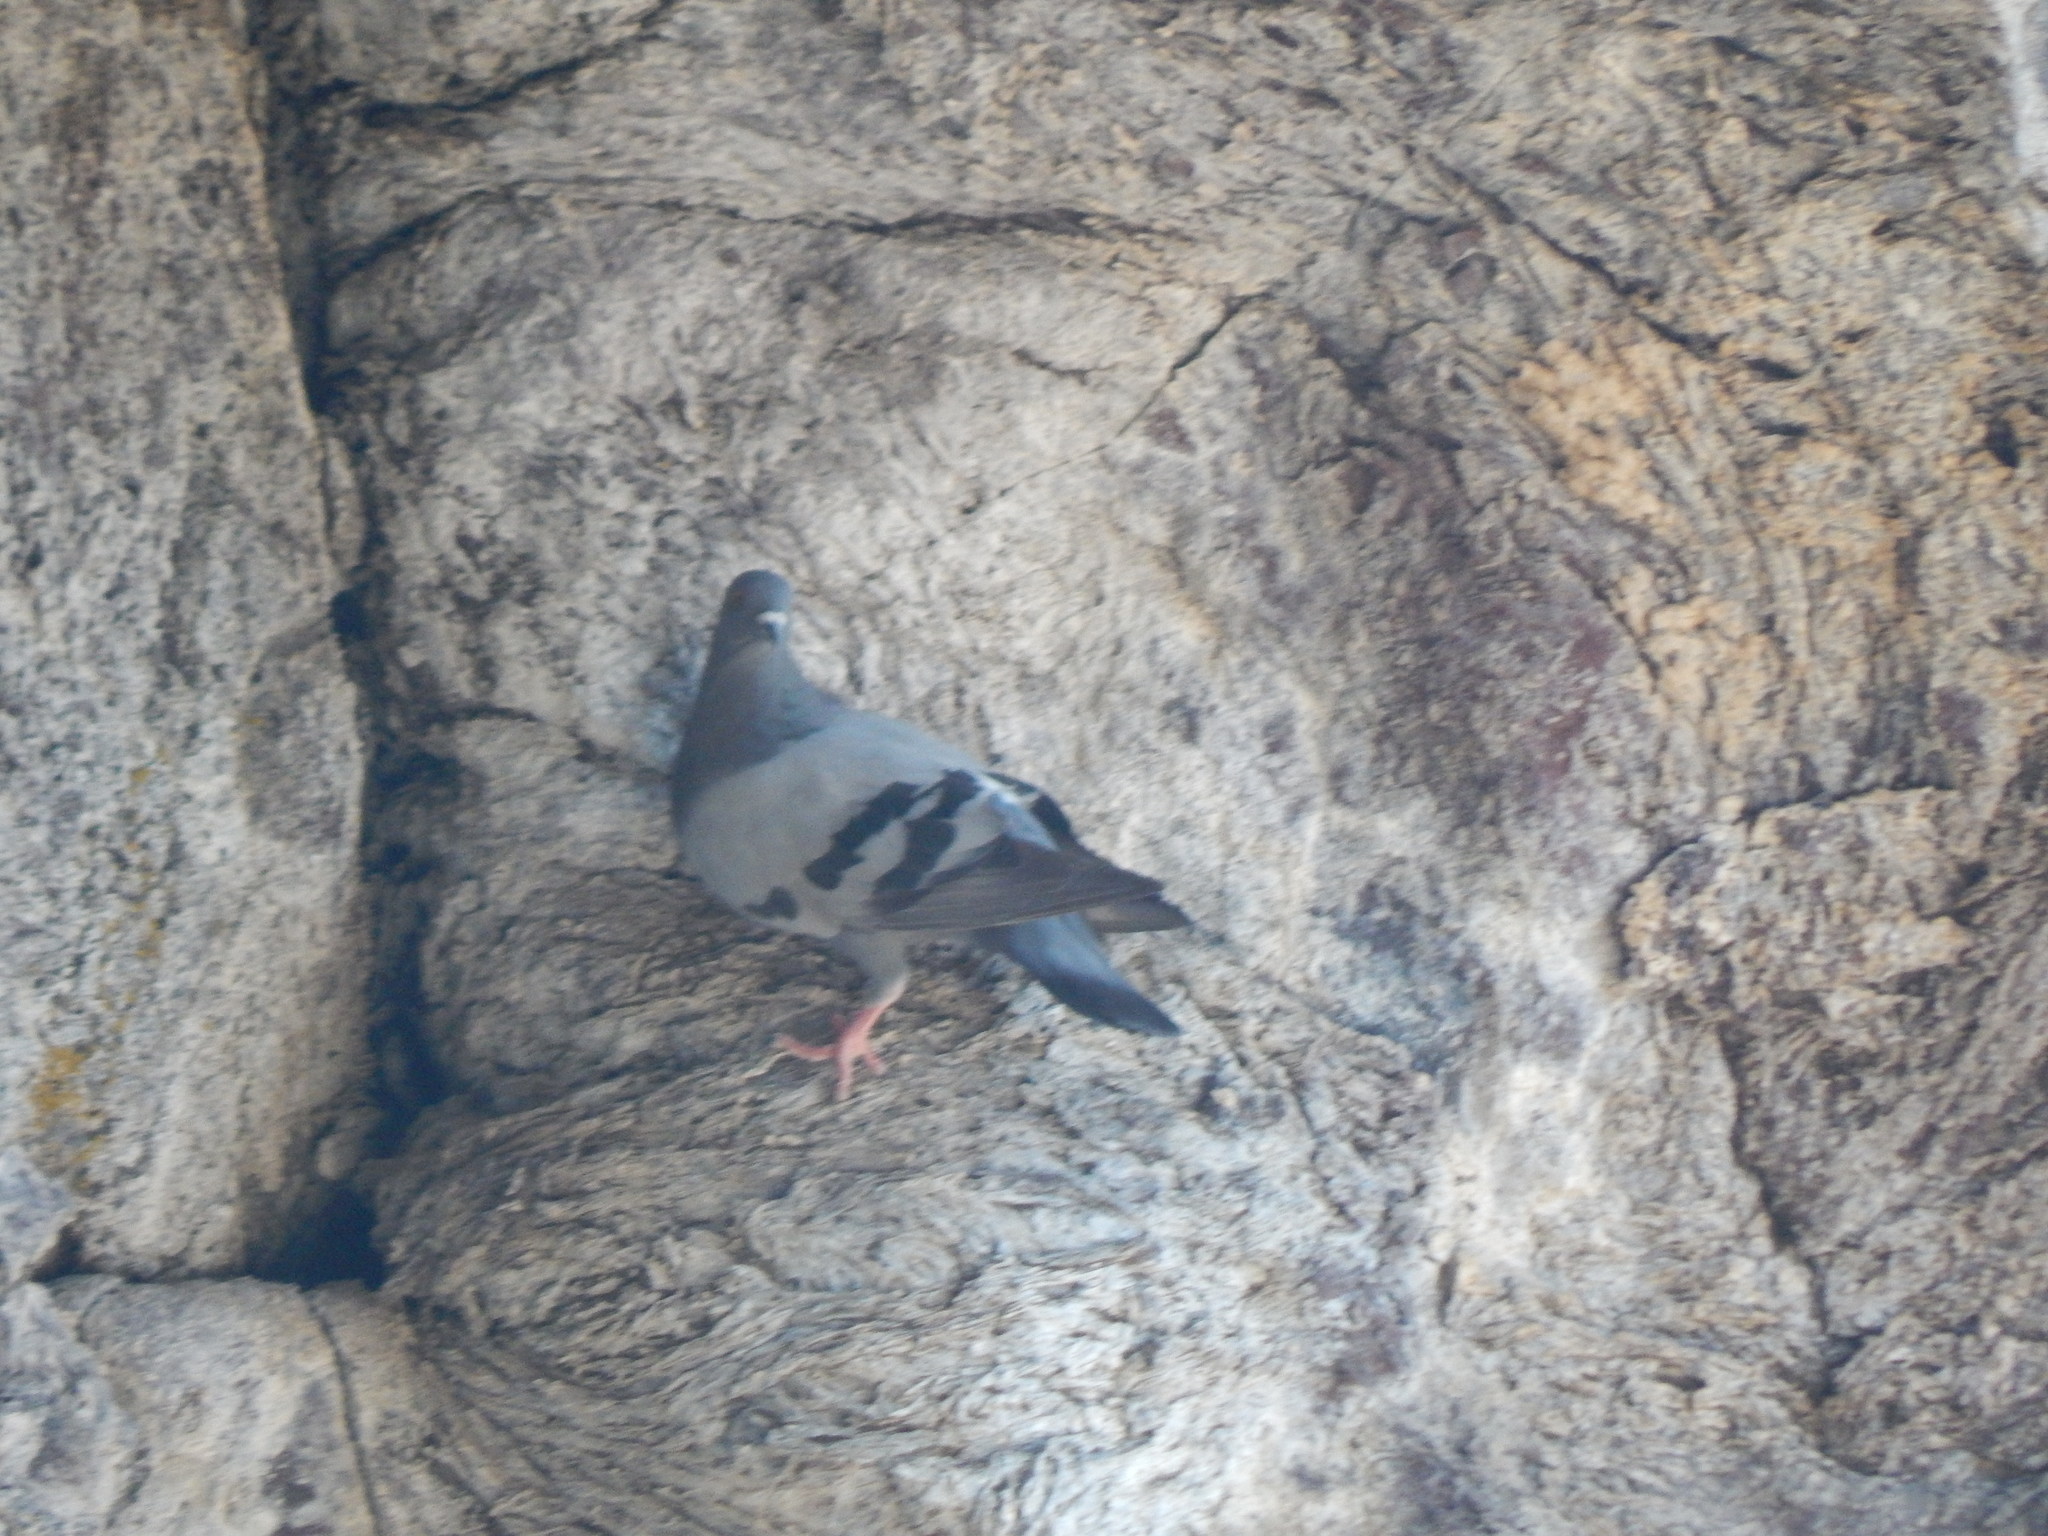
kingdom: Animalia
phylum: Chordata
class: Aves
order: Columbiformes
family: Columbidae
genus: Columba
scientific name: Columba livia
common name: Rock pigeon
